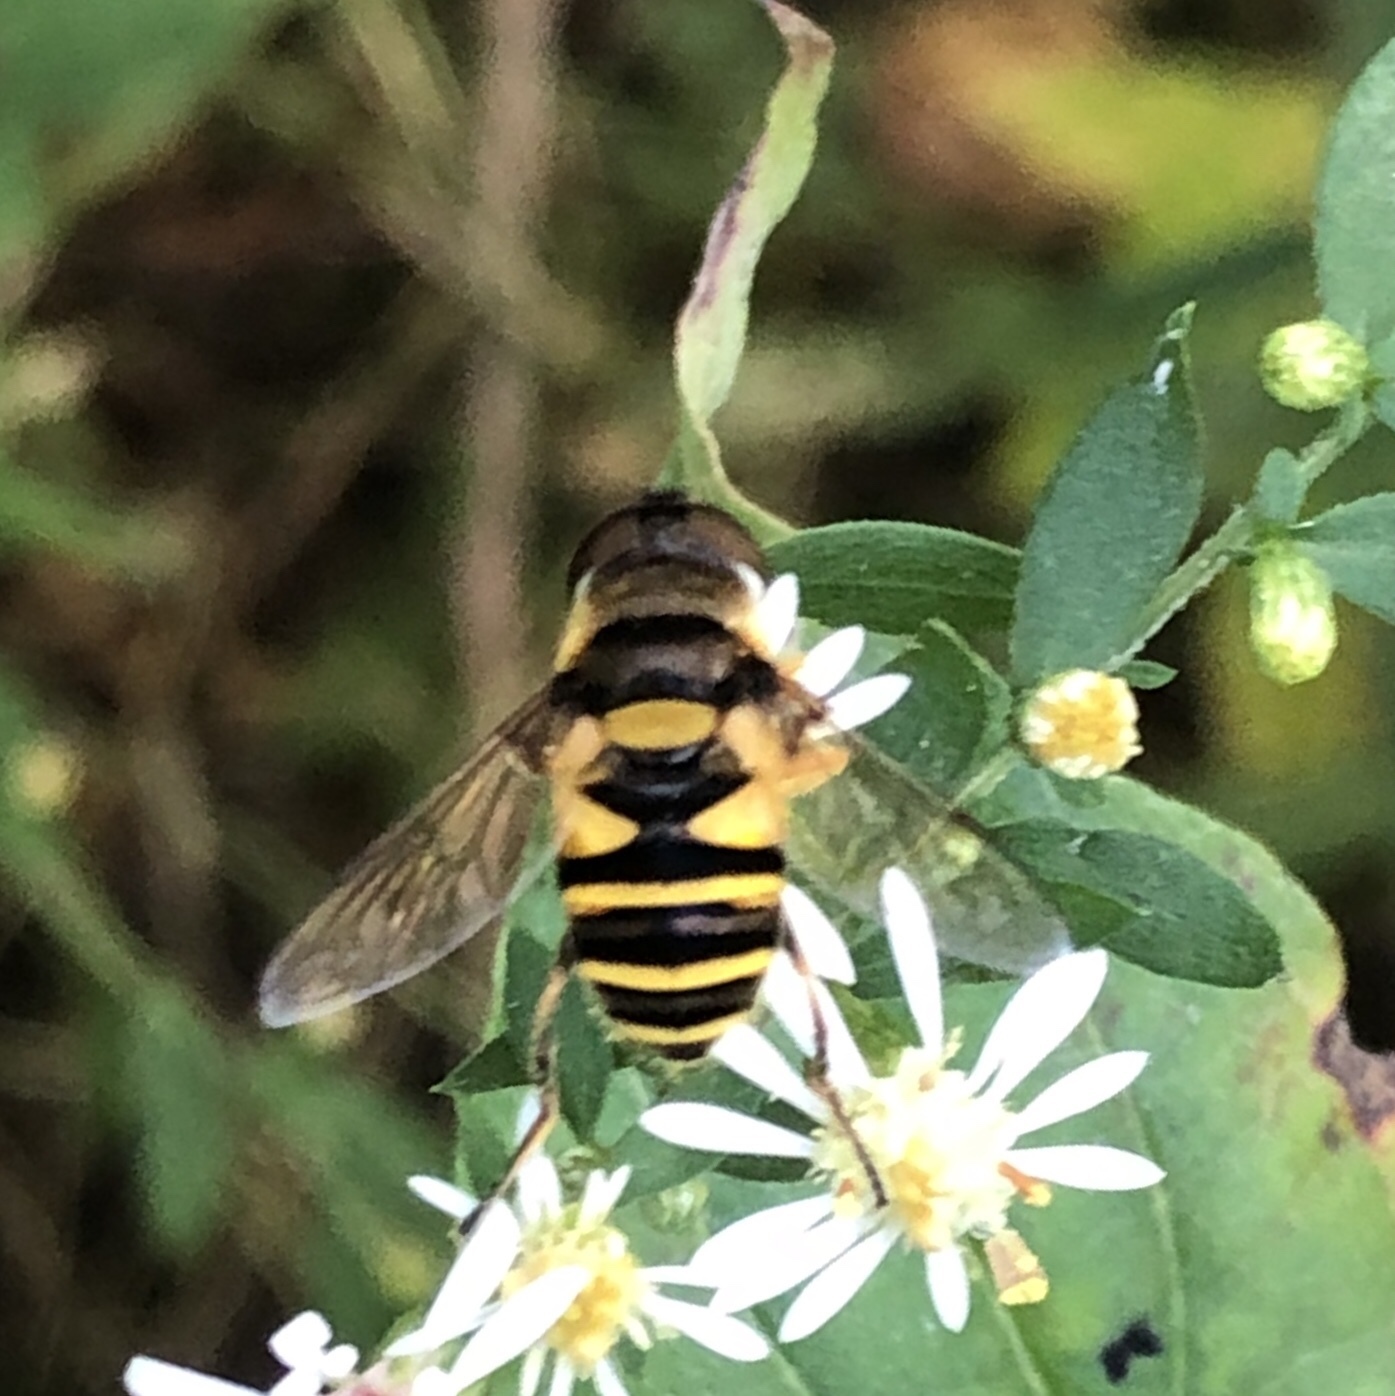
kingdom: Animalia
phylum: Arthropoda
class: Insecta
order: Diptera
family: Syrphidae
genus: Eristalis
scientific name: Eristalis transversa
